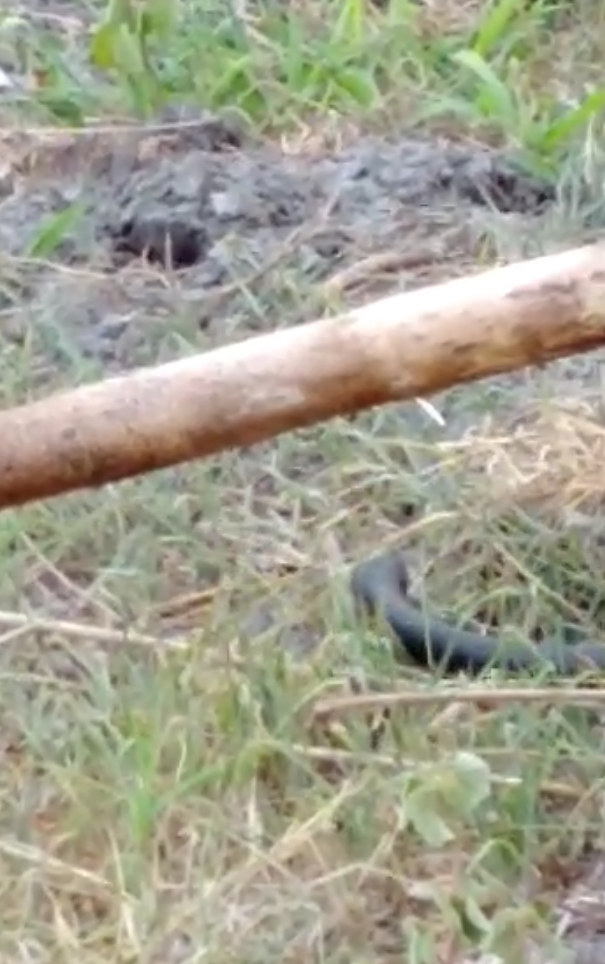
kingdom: Animalia
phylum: Chordata
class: Squamata
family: Colubridae
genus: Coluber
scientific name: Coluber constrictor
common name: Eastern racer
